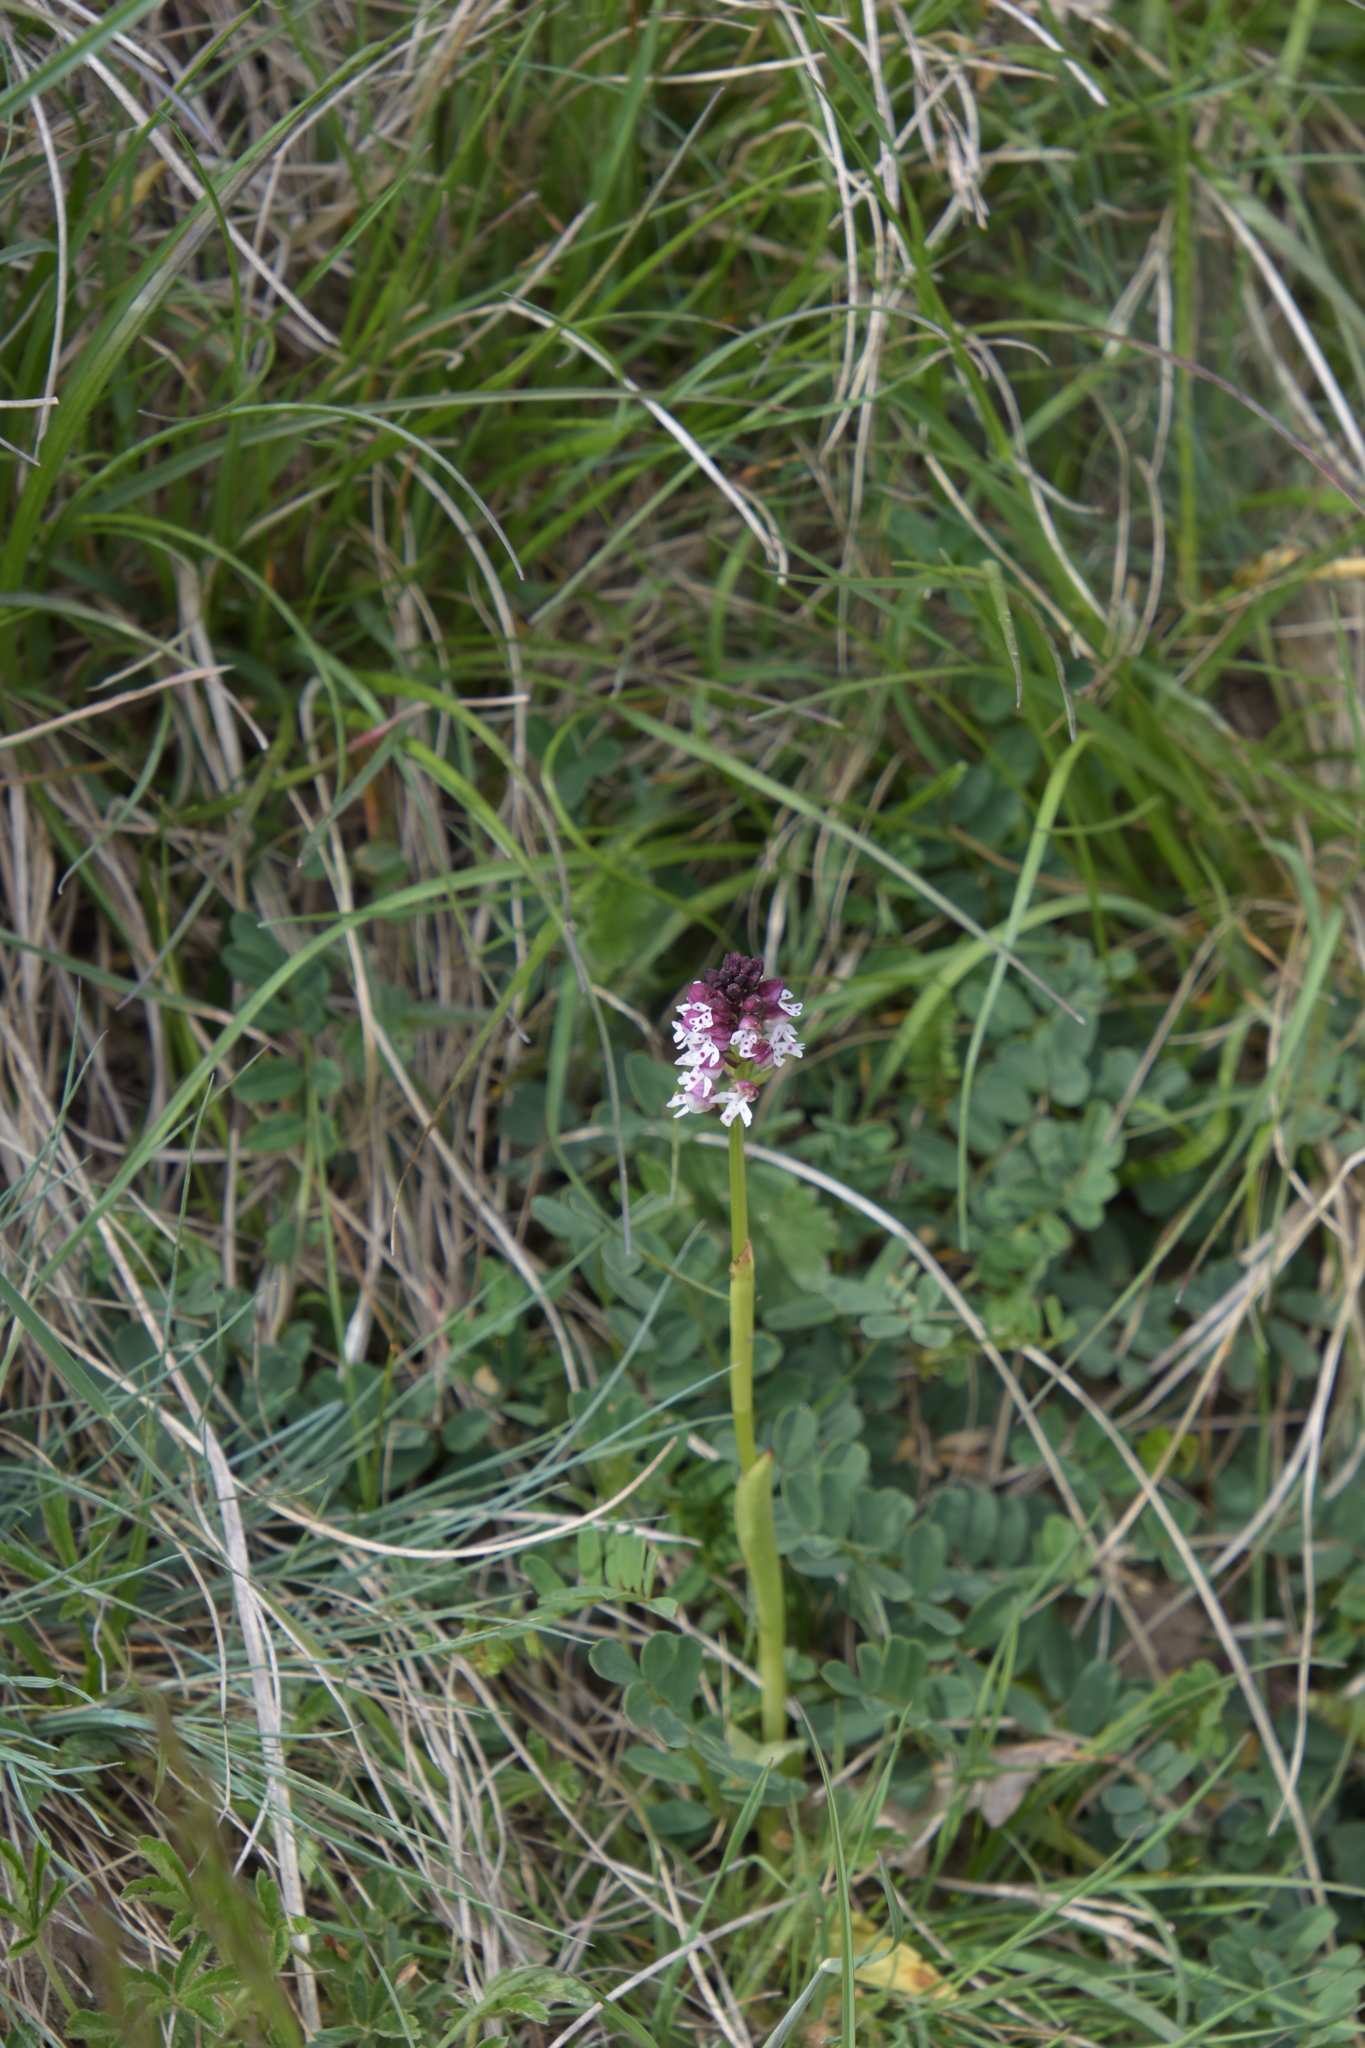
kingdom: Plantae
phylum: Tracheophyta
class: Liliopsida
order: Asparagales
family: Orchidaceae
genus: Neotinea
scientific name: Neotinea ustulata
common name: Burnt orchid
